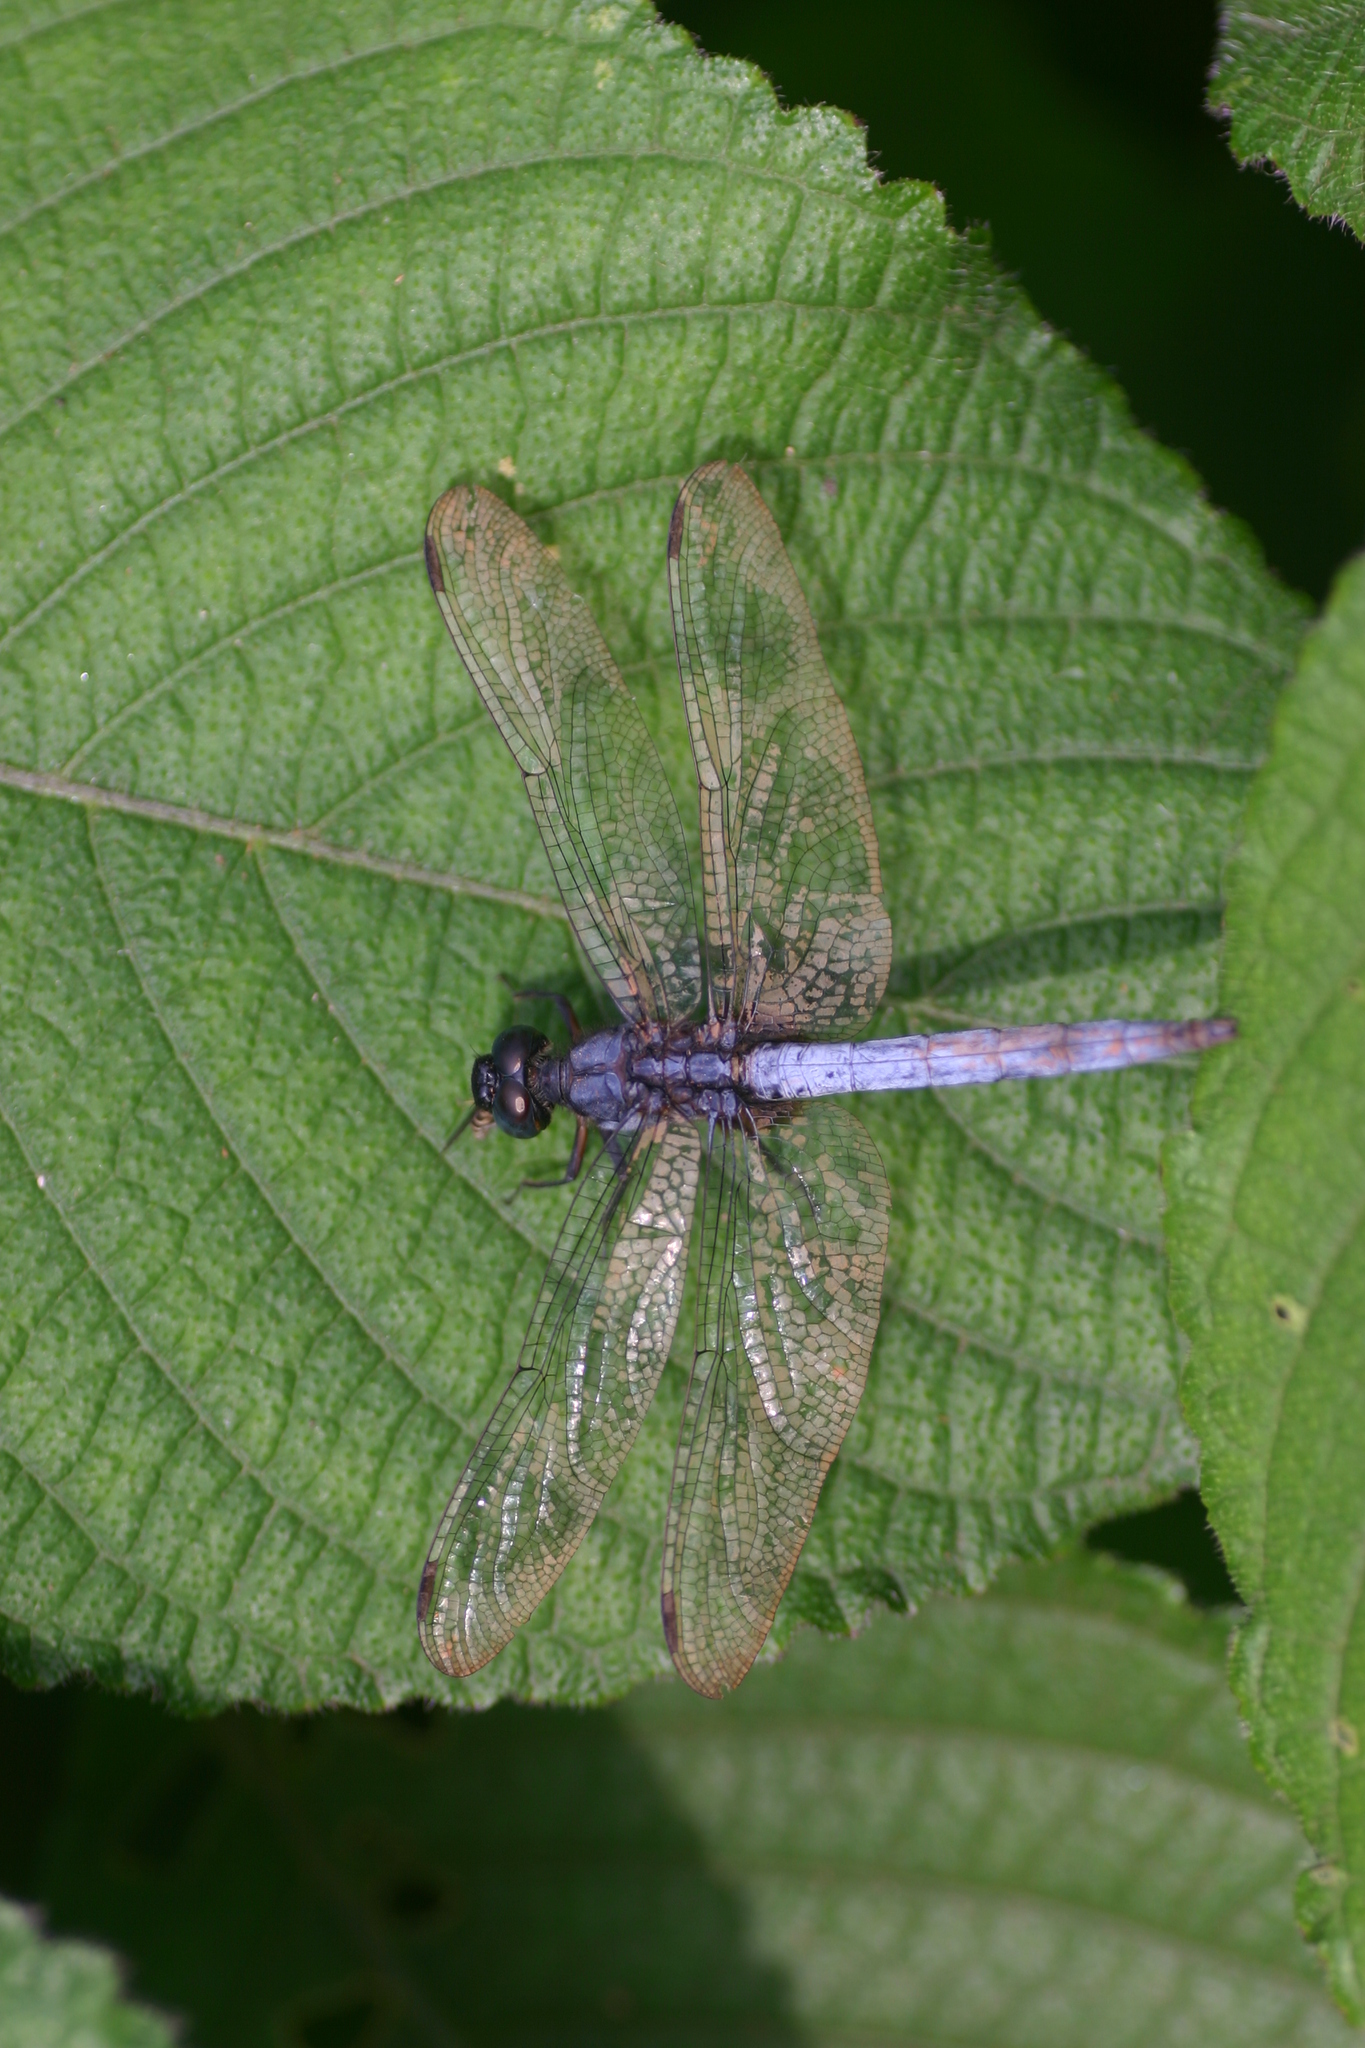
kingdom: Animalia
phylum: Arthropoda
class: Insecta
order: Odonata
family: Libellulidae
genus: Orthetrum
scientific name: Orthetrum glaucum
